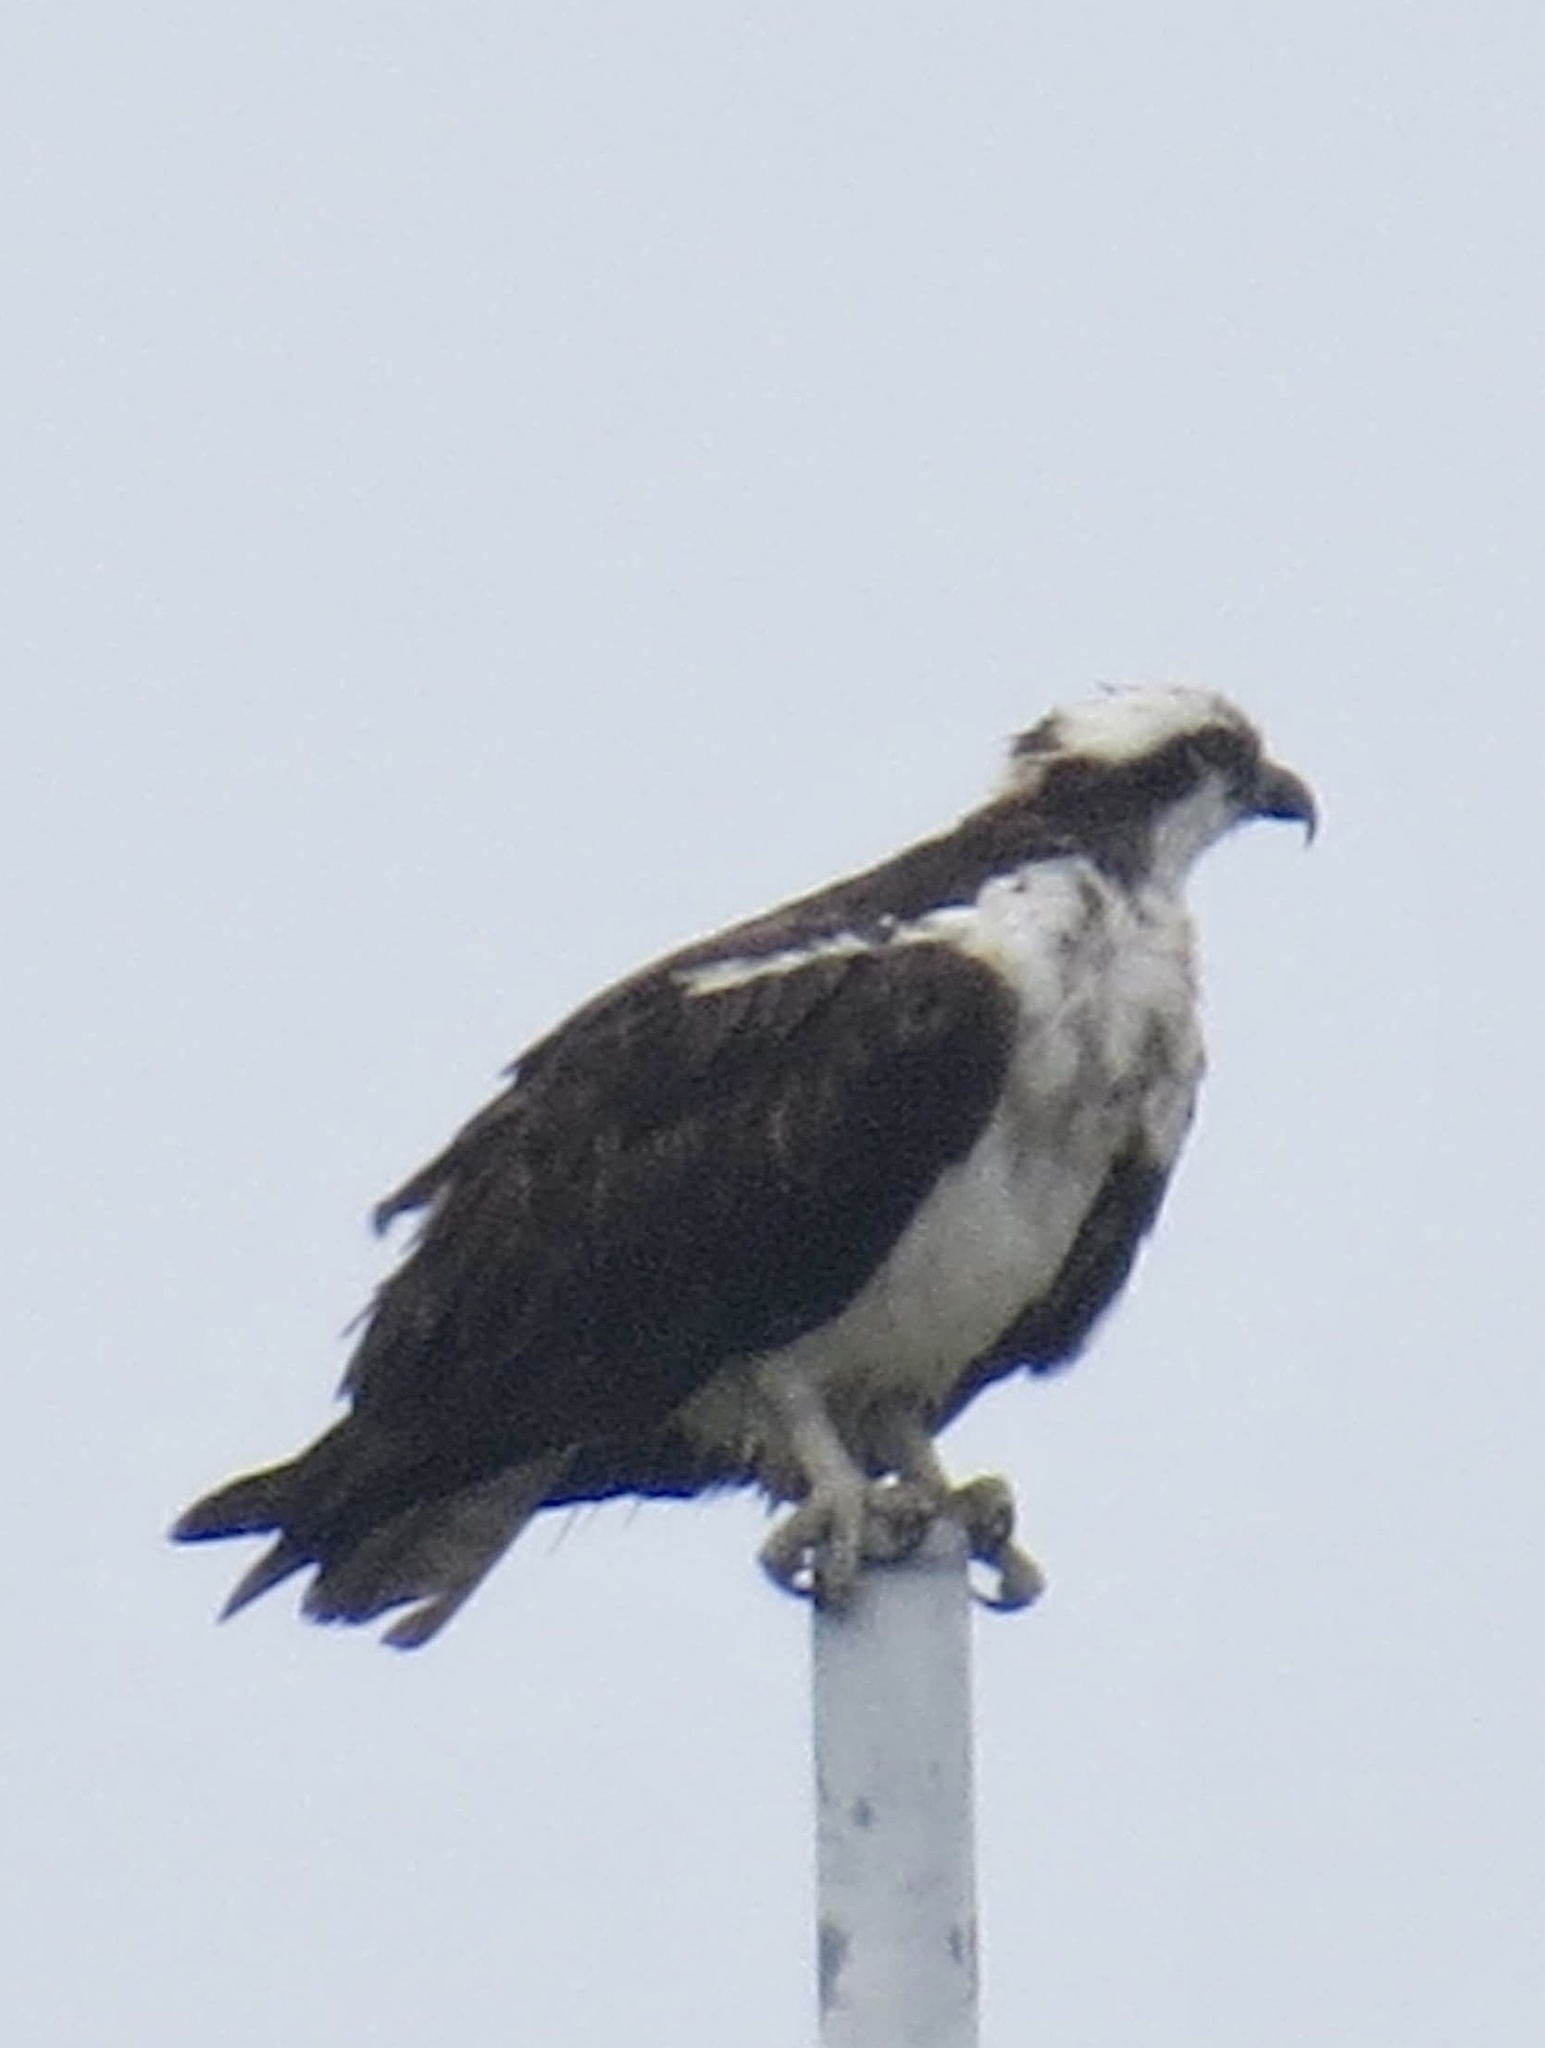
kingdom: Animalia
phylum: Chordata
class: Aves
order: Accipitriformes
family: Pandionidae
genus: Pandion
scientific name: Pandion haliaetus
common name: Osprey
